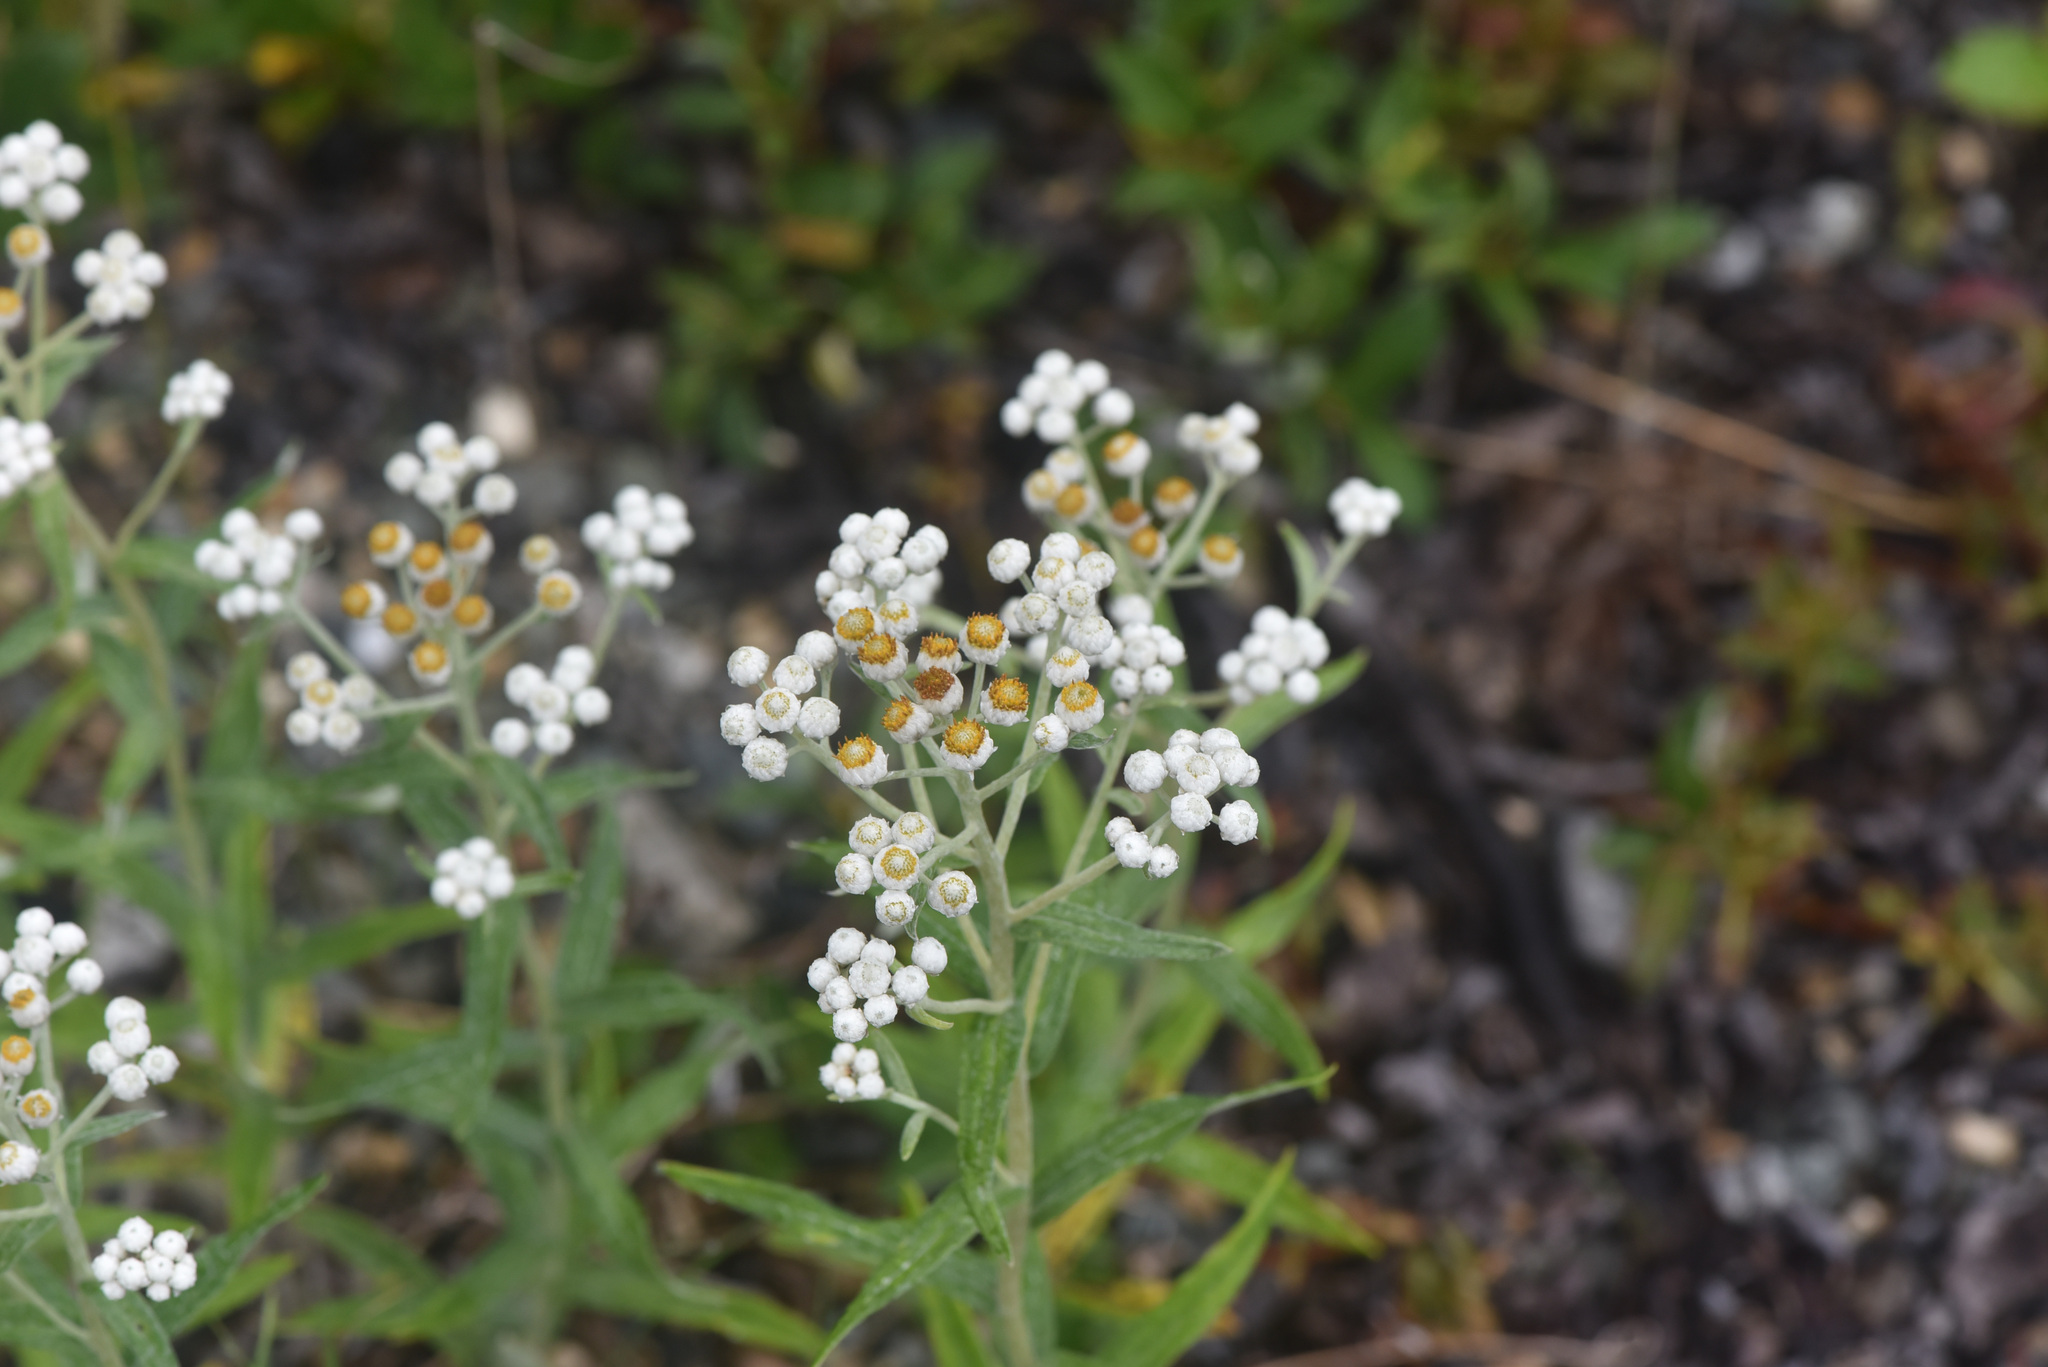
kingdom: Plantae
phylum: Tracheophyta
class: Magnoliopsida
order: Asterales
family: Asteraceae
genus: Anaphalis
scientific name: Anaphalis margaritacea
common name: Pearly everlasting
